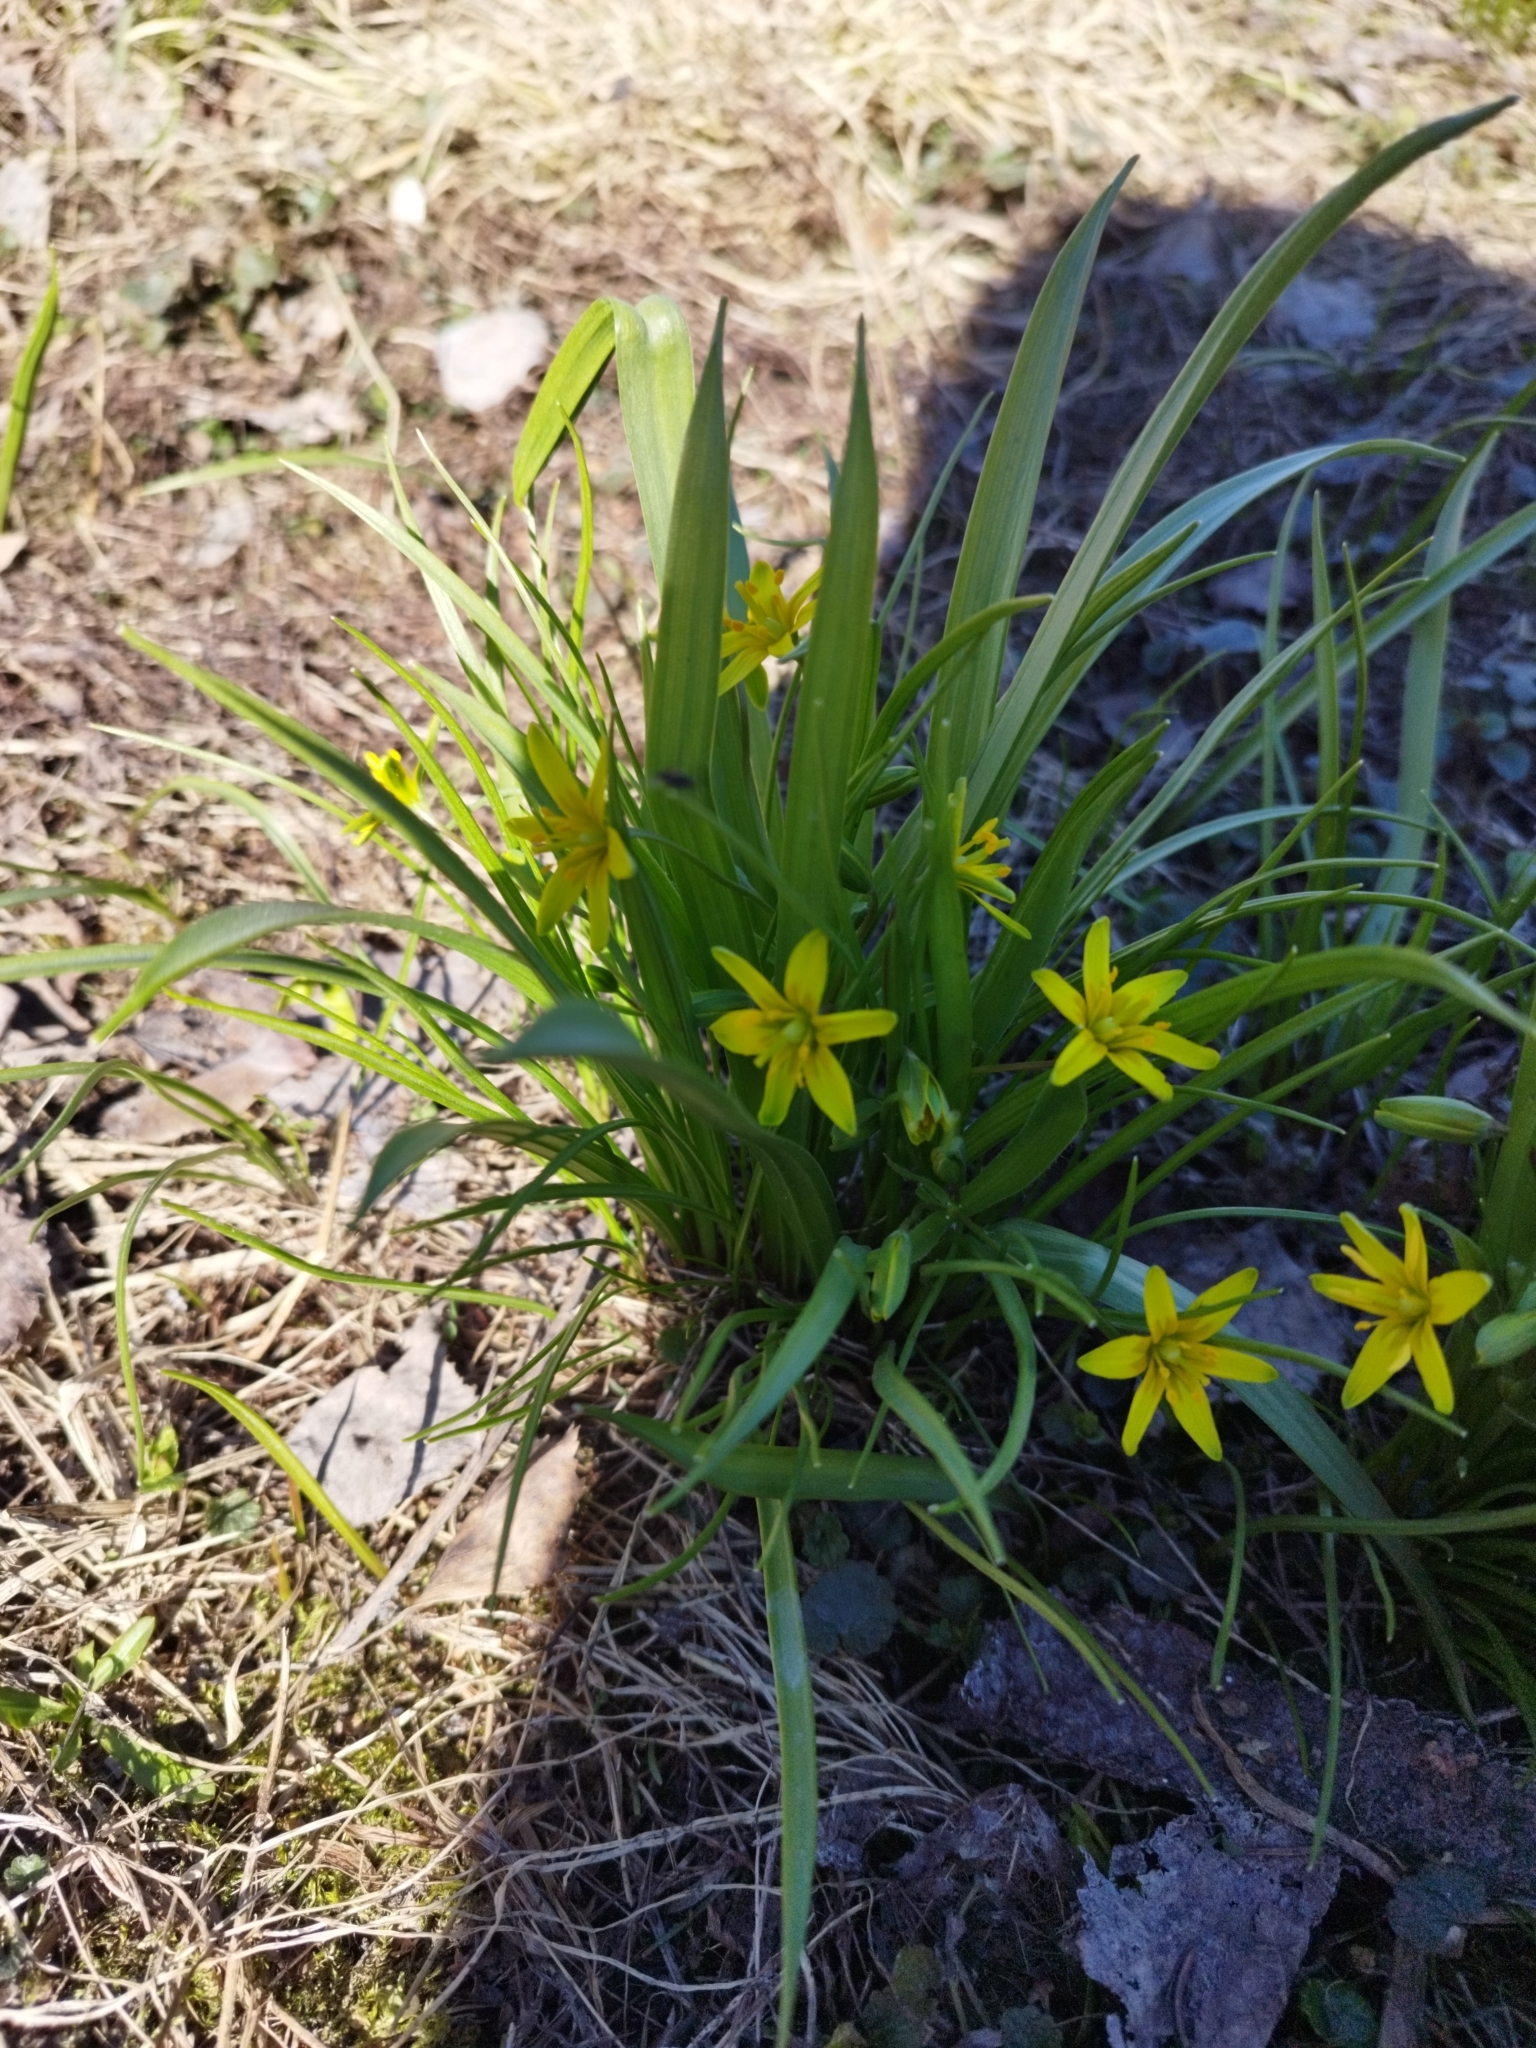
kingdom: Plantae
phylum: Tracheophyta
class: Liliopsida
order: Liliales
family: Liliaceae
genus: Gagea
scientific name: Gagea lutea
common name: Yellow star-of-bethlehem
